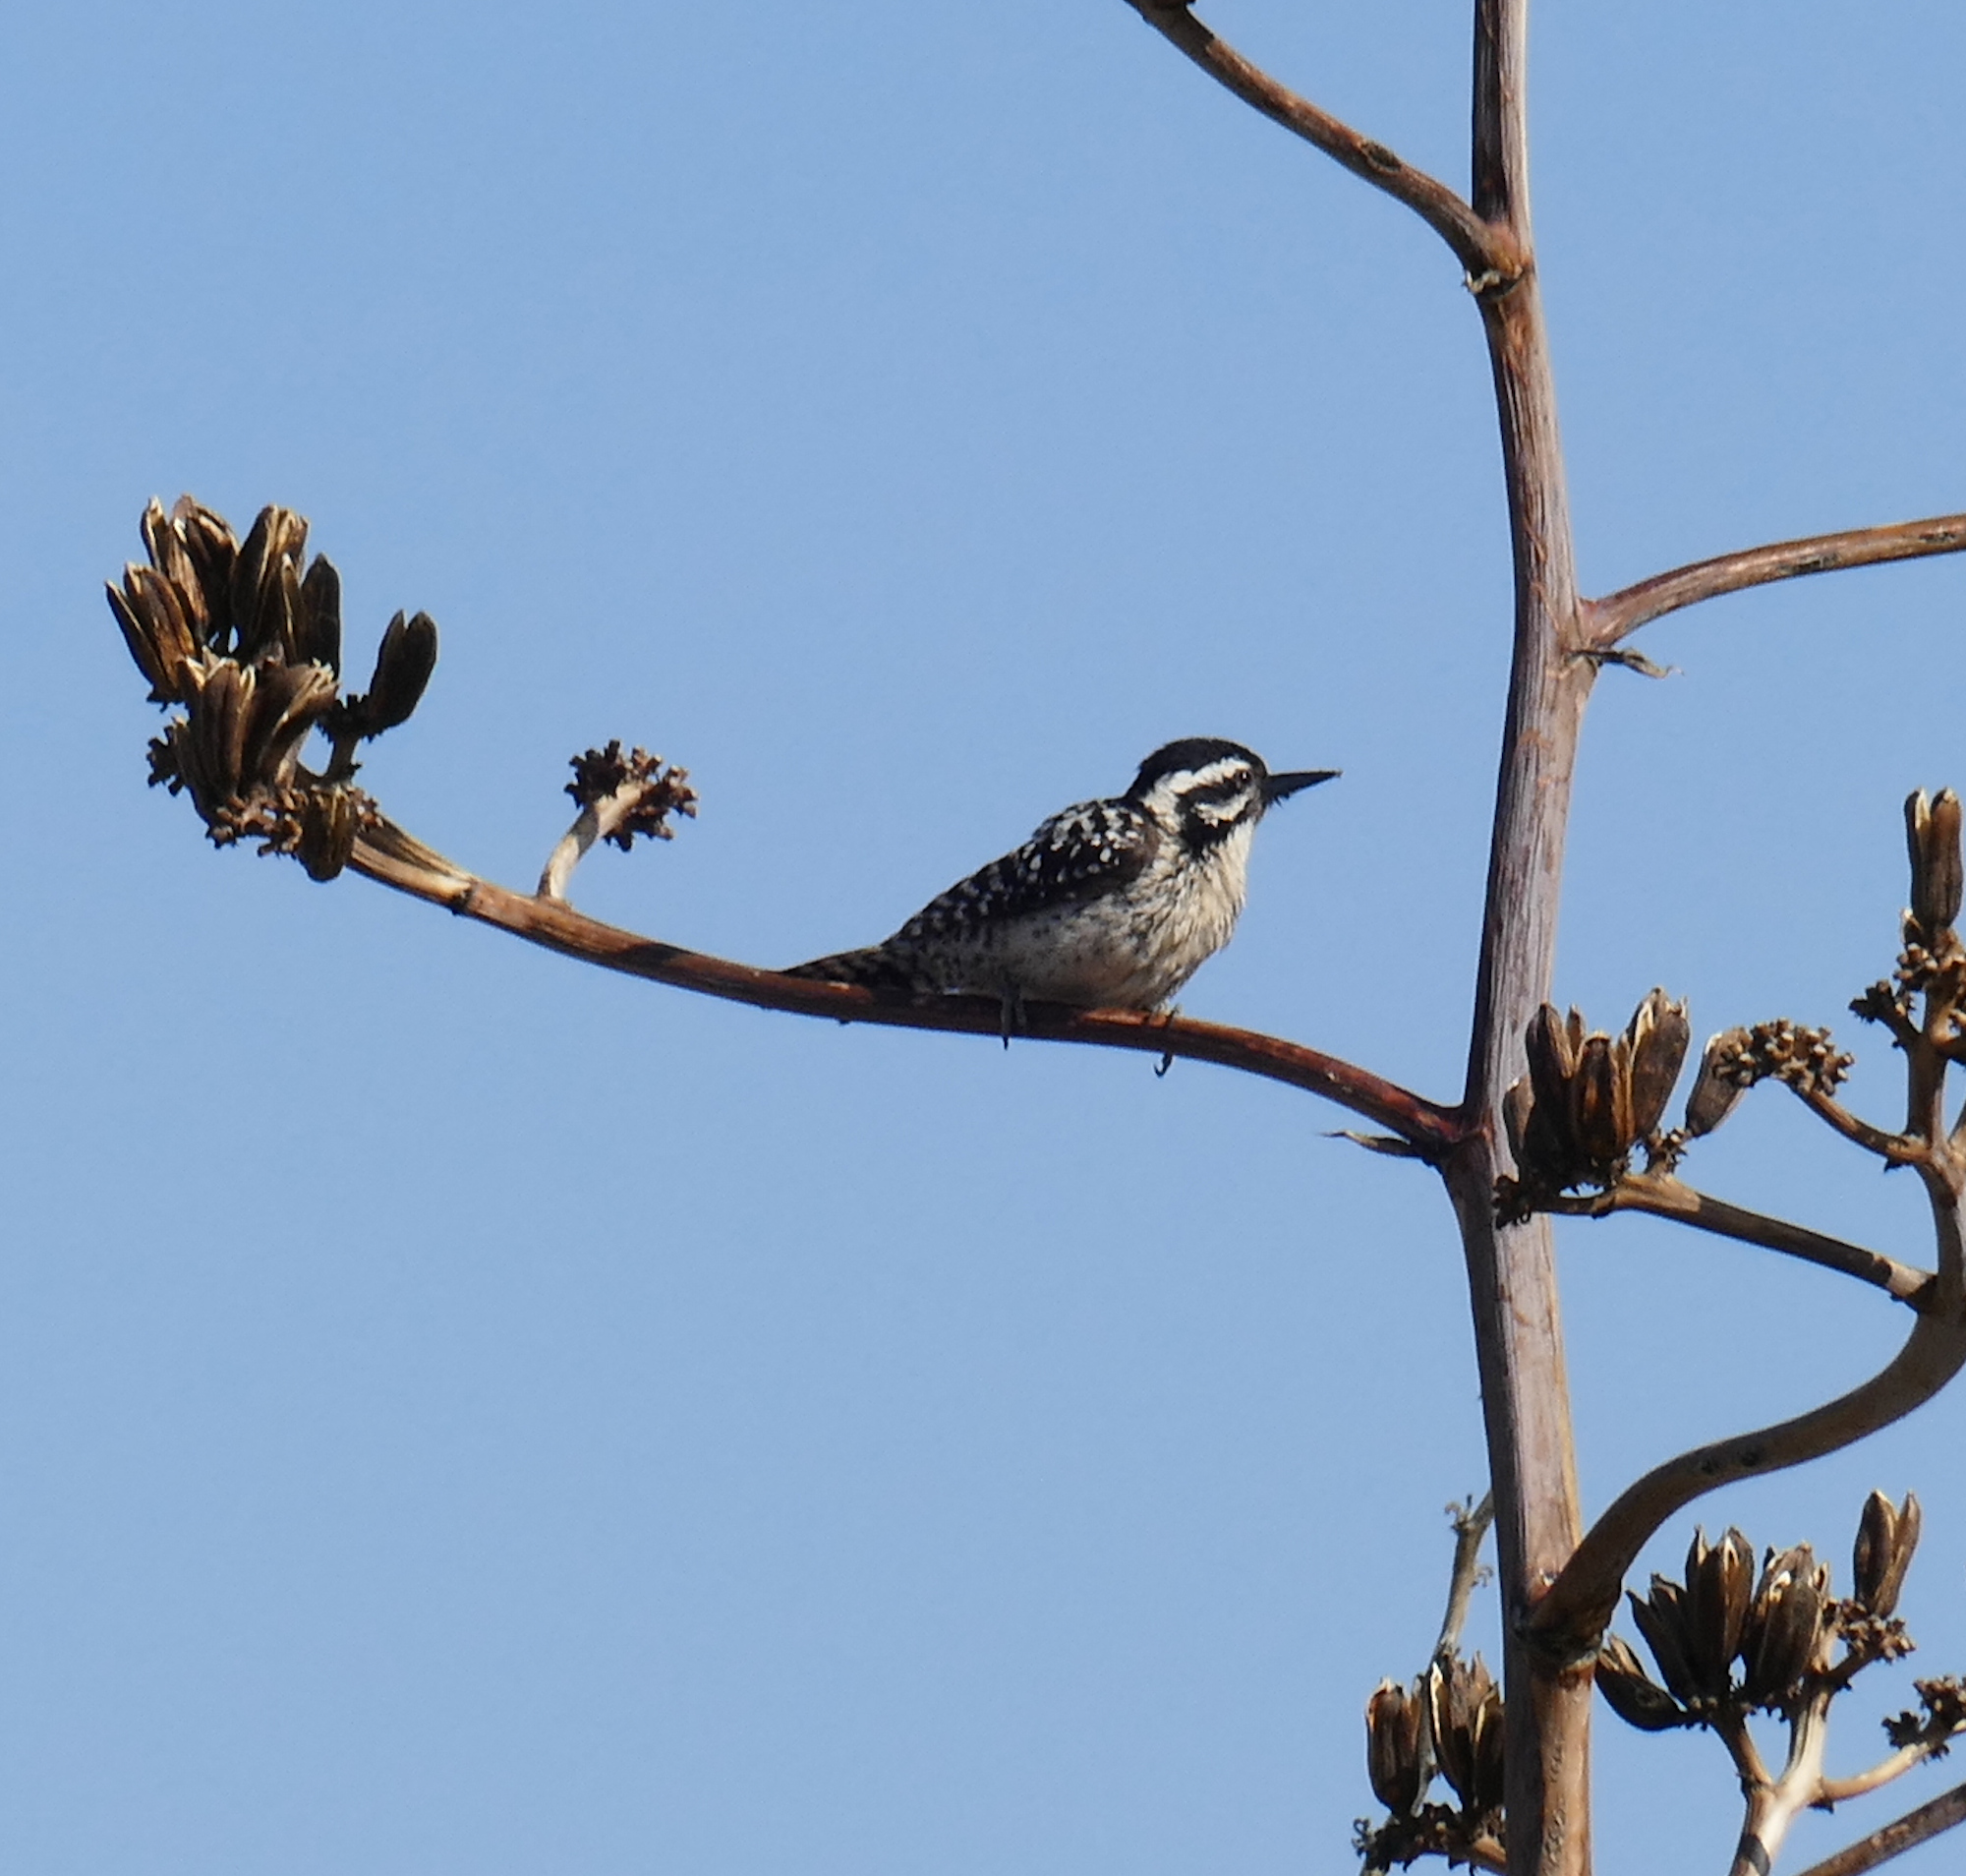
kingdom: Animalia
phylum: Chordata
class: Aves
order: Piciformes
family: Picidae
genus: Dryobates
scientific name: Dryobates scalaris
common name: Ladder-backed woodpecker
